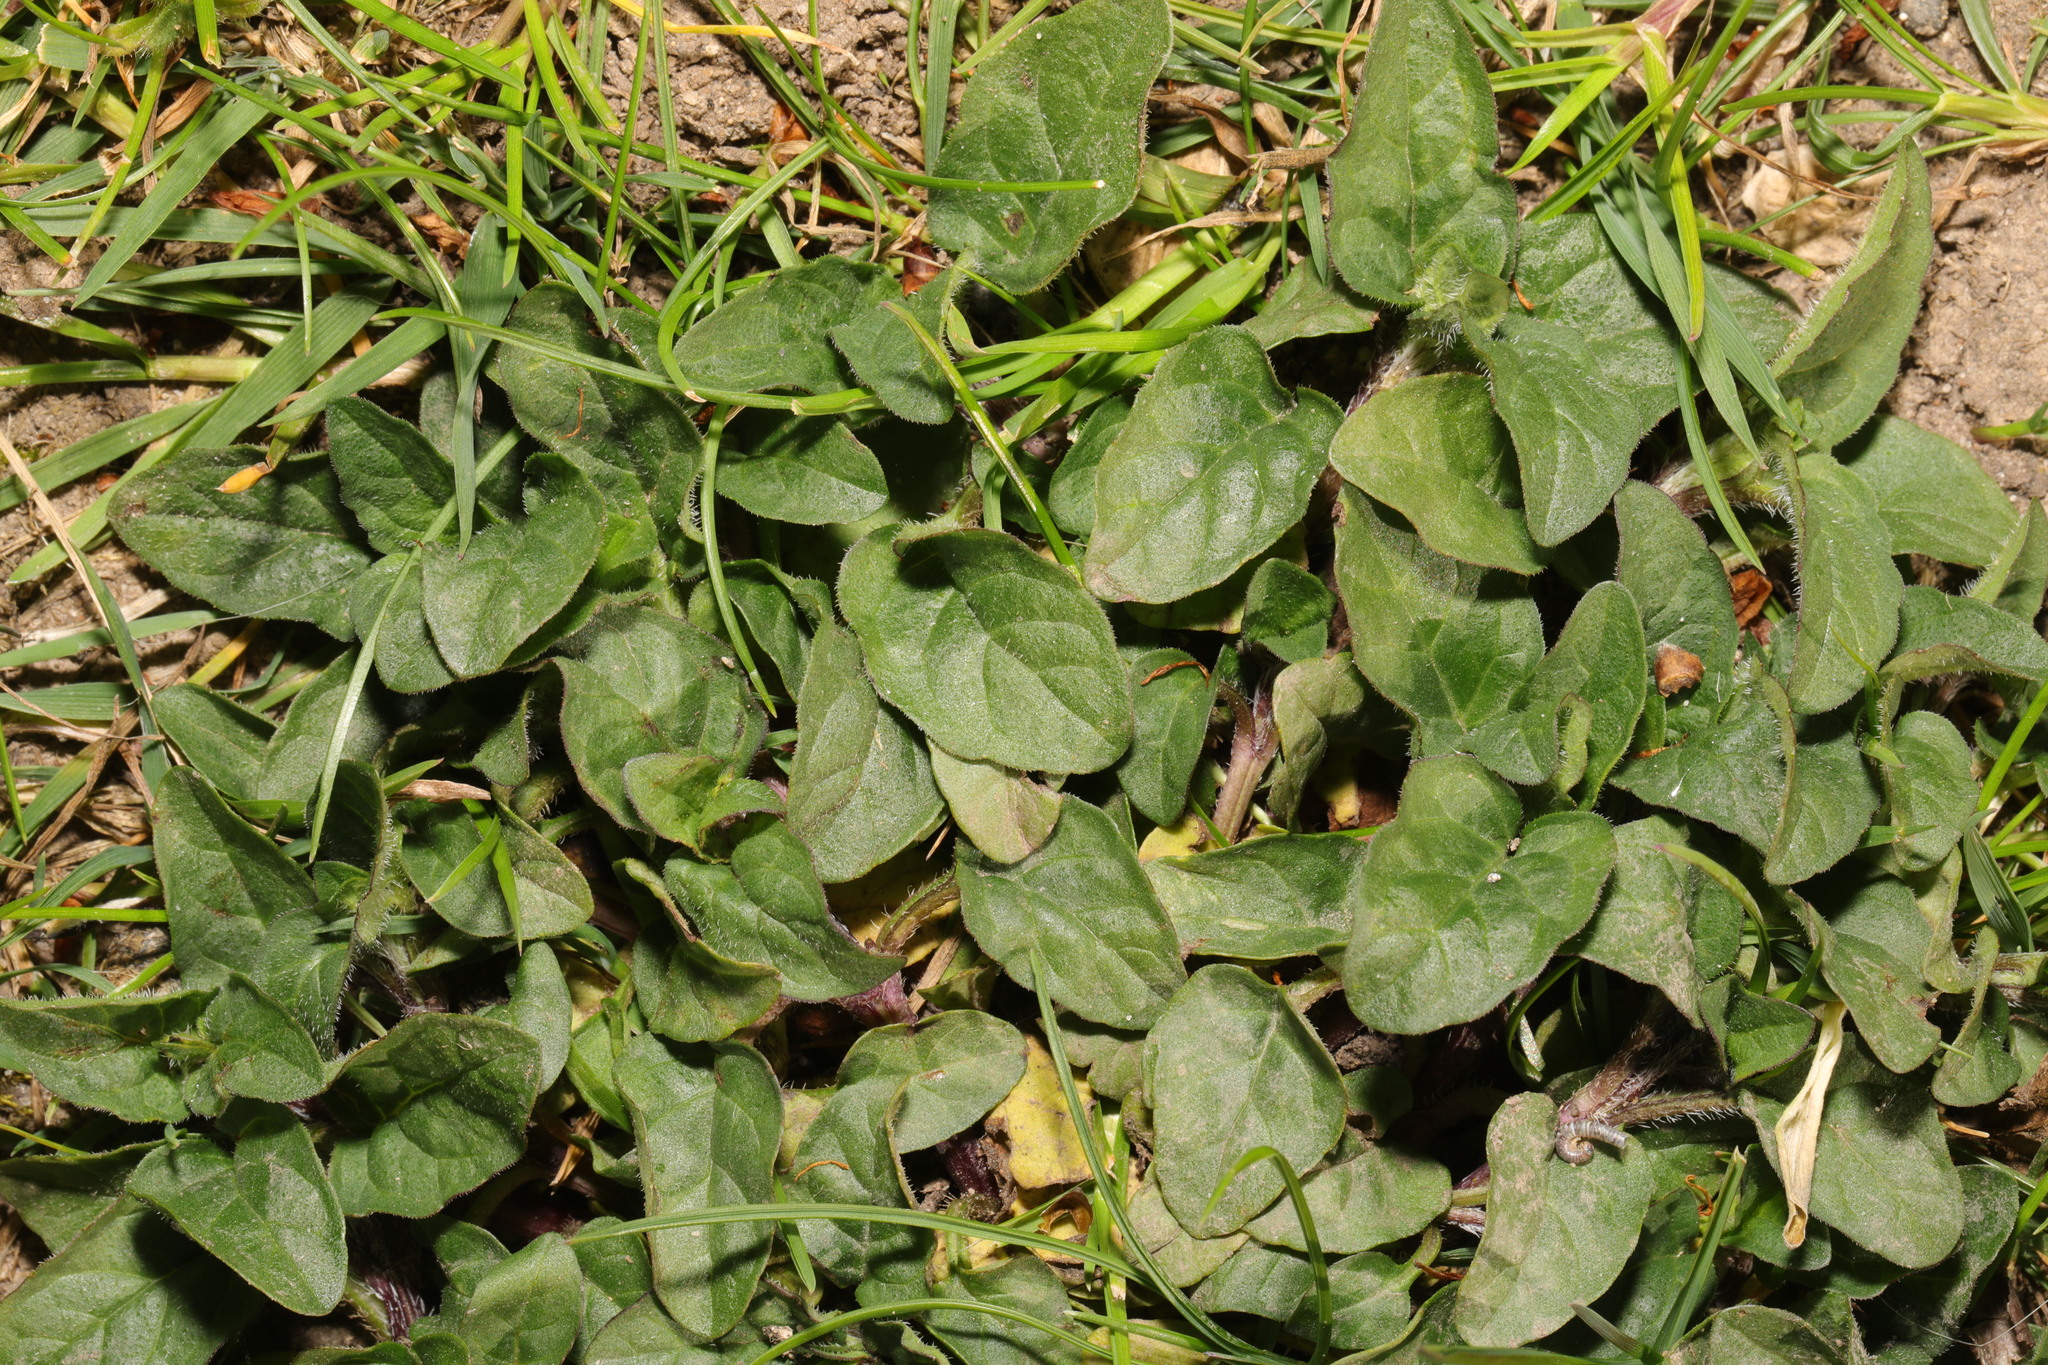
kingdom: Plantae
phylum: Tracheophyta
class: Magnoliopsida
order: Lamiales
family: Lamiaceae
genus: Prunella
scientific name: Prunella vulgaris
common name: Heal-all
